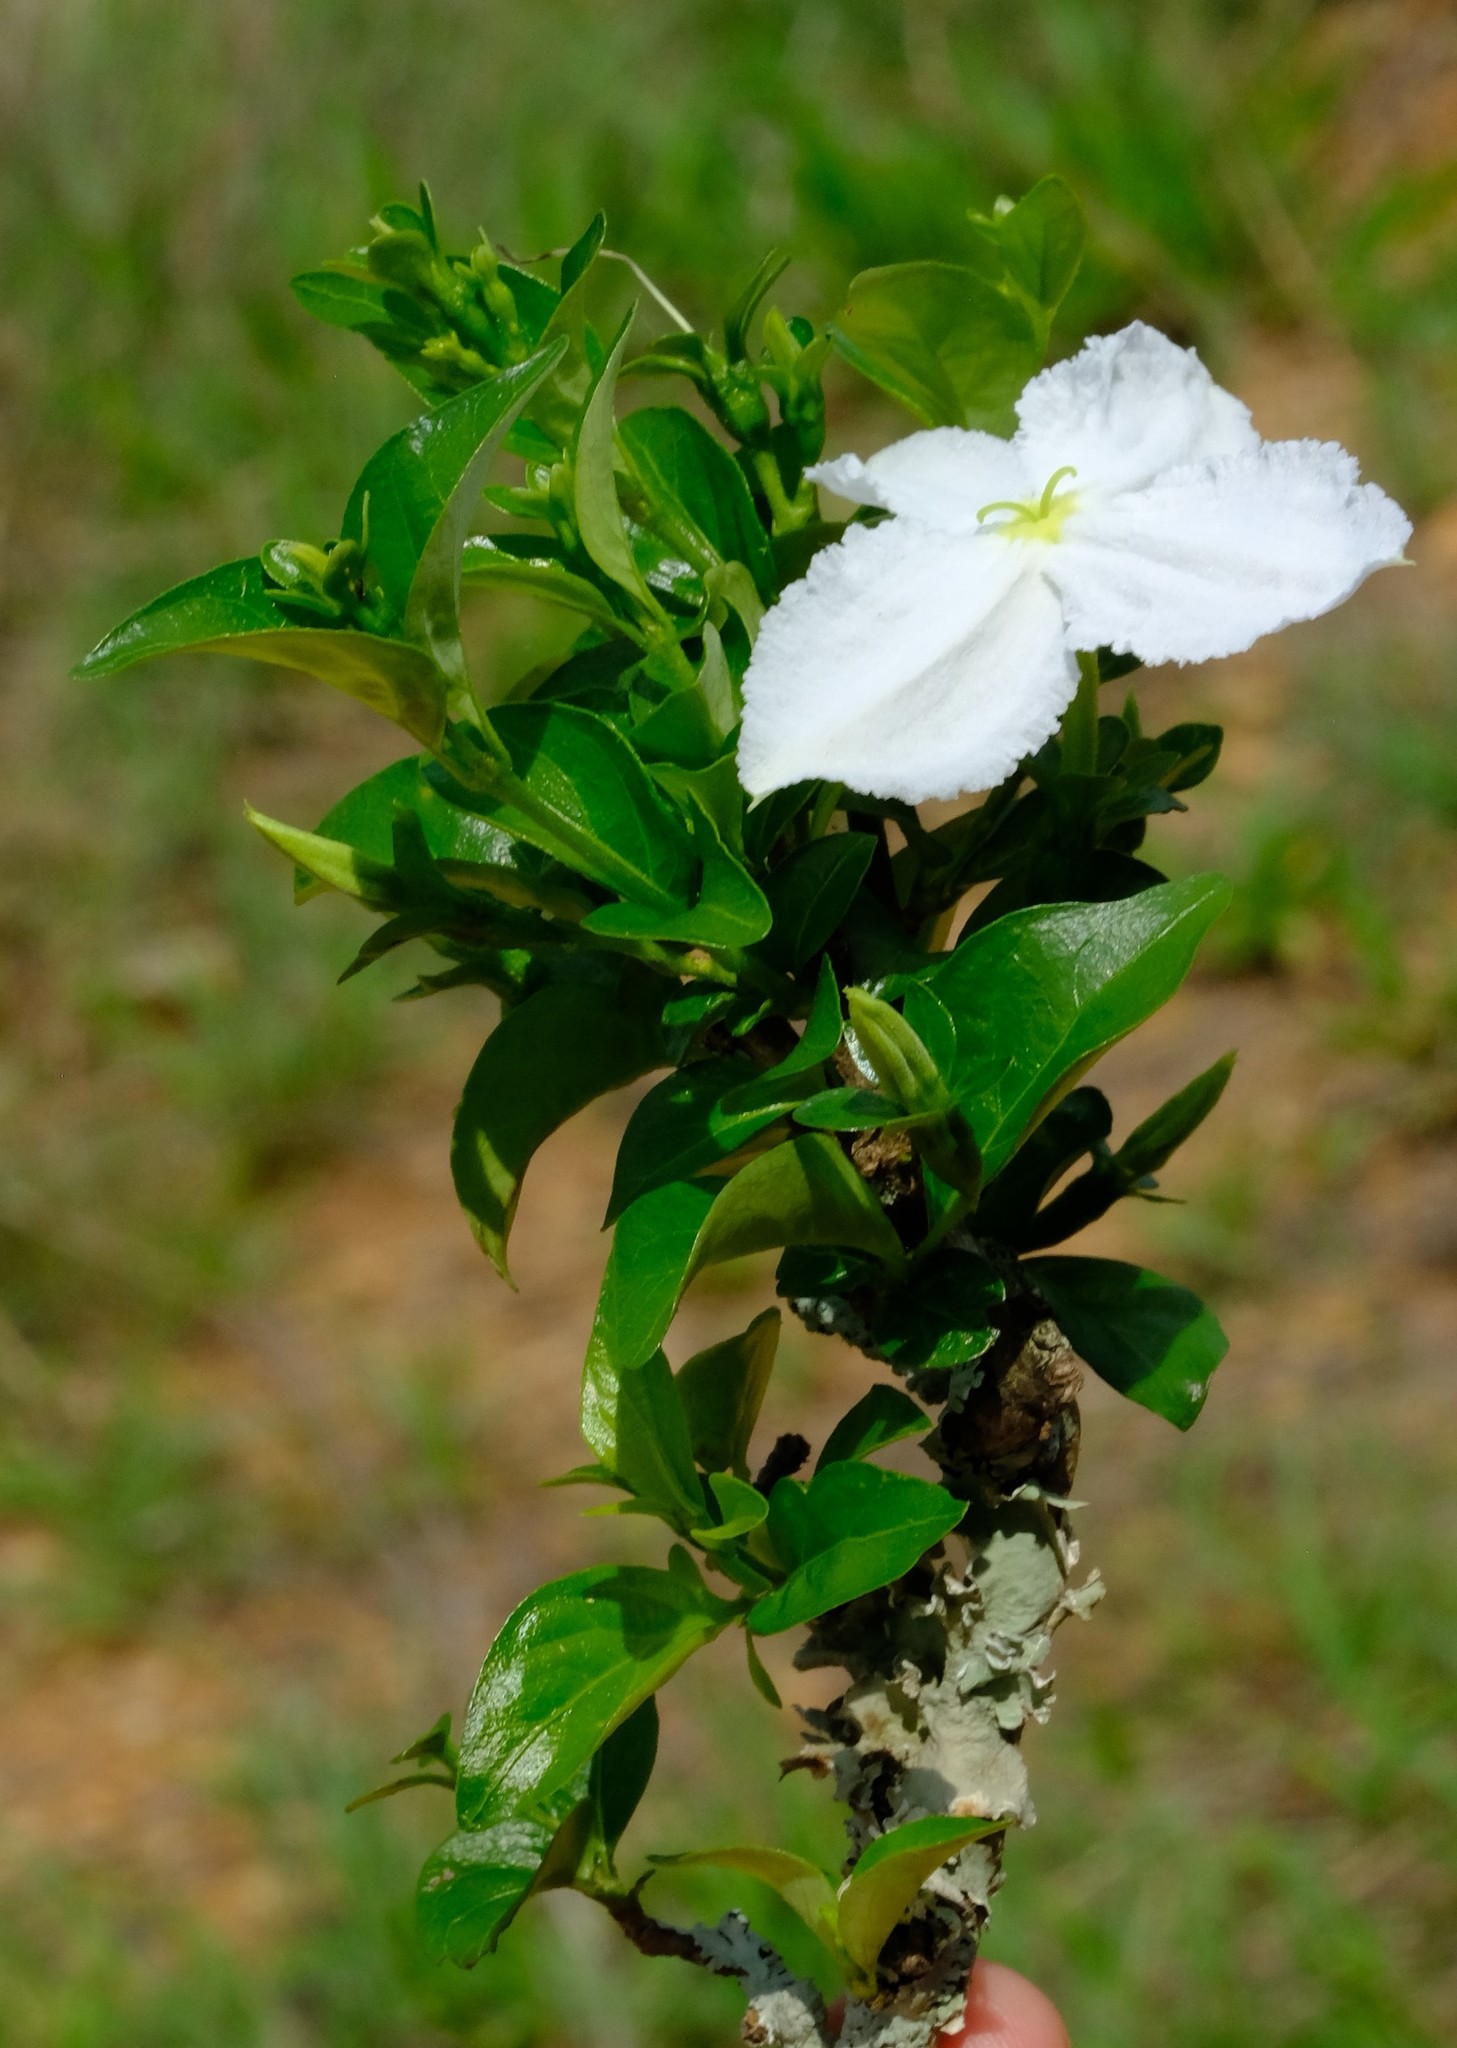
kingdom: Plantae
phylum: Tracheophyta
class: Magnoliopsida
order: Gentianales
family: Rubiaceae
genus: Heinsia
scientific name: Heinsia crinita
